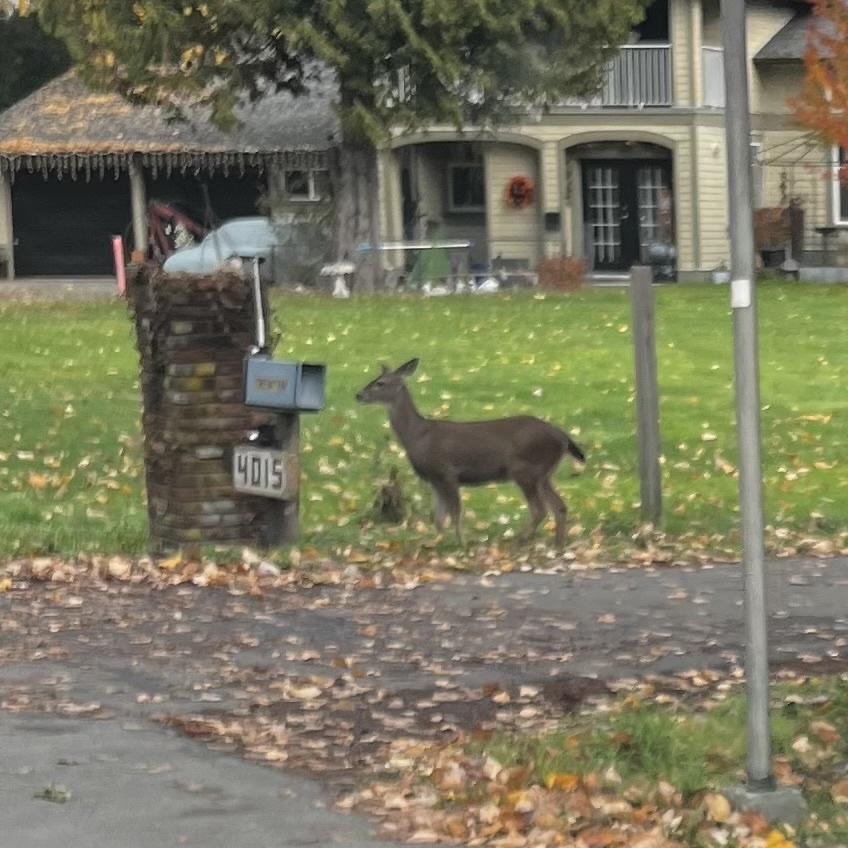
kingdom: Animalia
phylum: Chordata
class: Mammalia
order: Artiodactyla
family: Cervidae
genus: Odocoileus
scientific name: Odocoileus hemionus
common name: Mule deer
